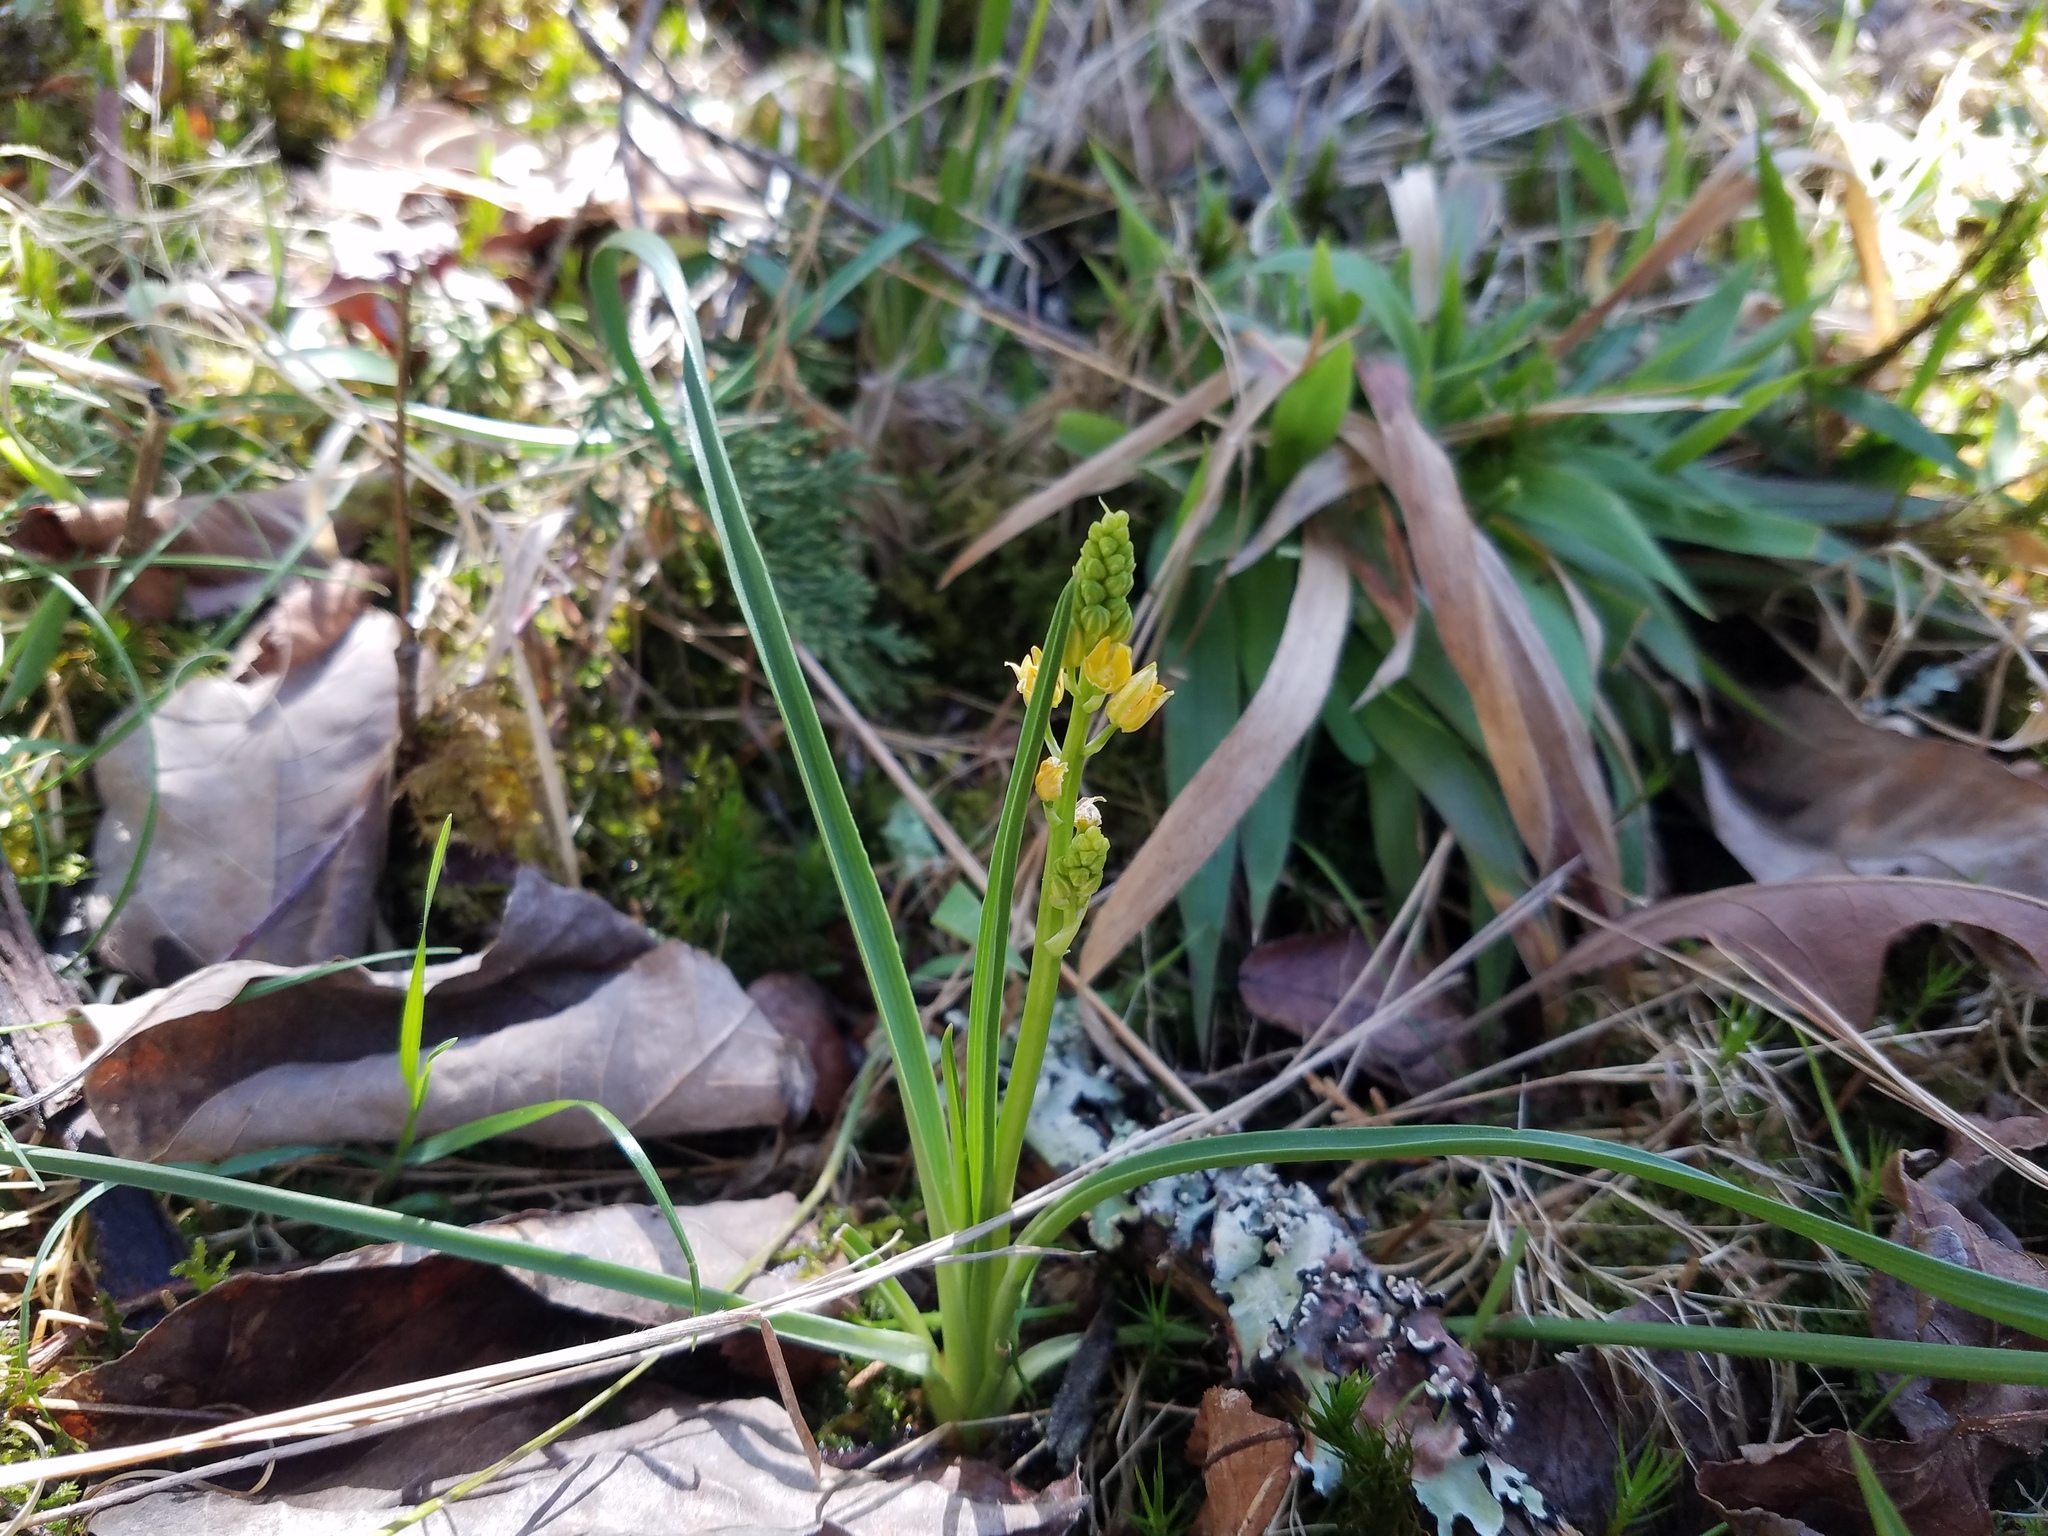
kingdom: Plantae
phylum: Tracheophyta
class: Liliopsida
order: Asparagales
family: Asparagaceae
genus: Schoenolirion
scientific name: Schoenolirion croceum
